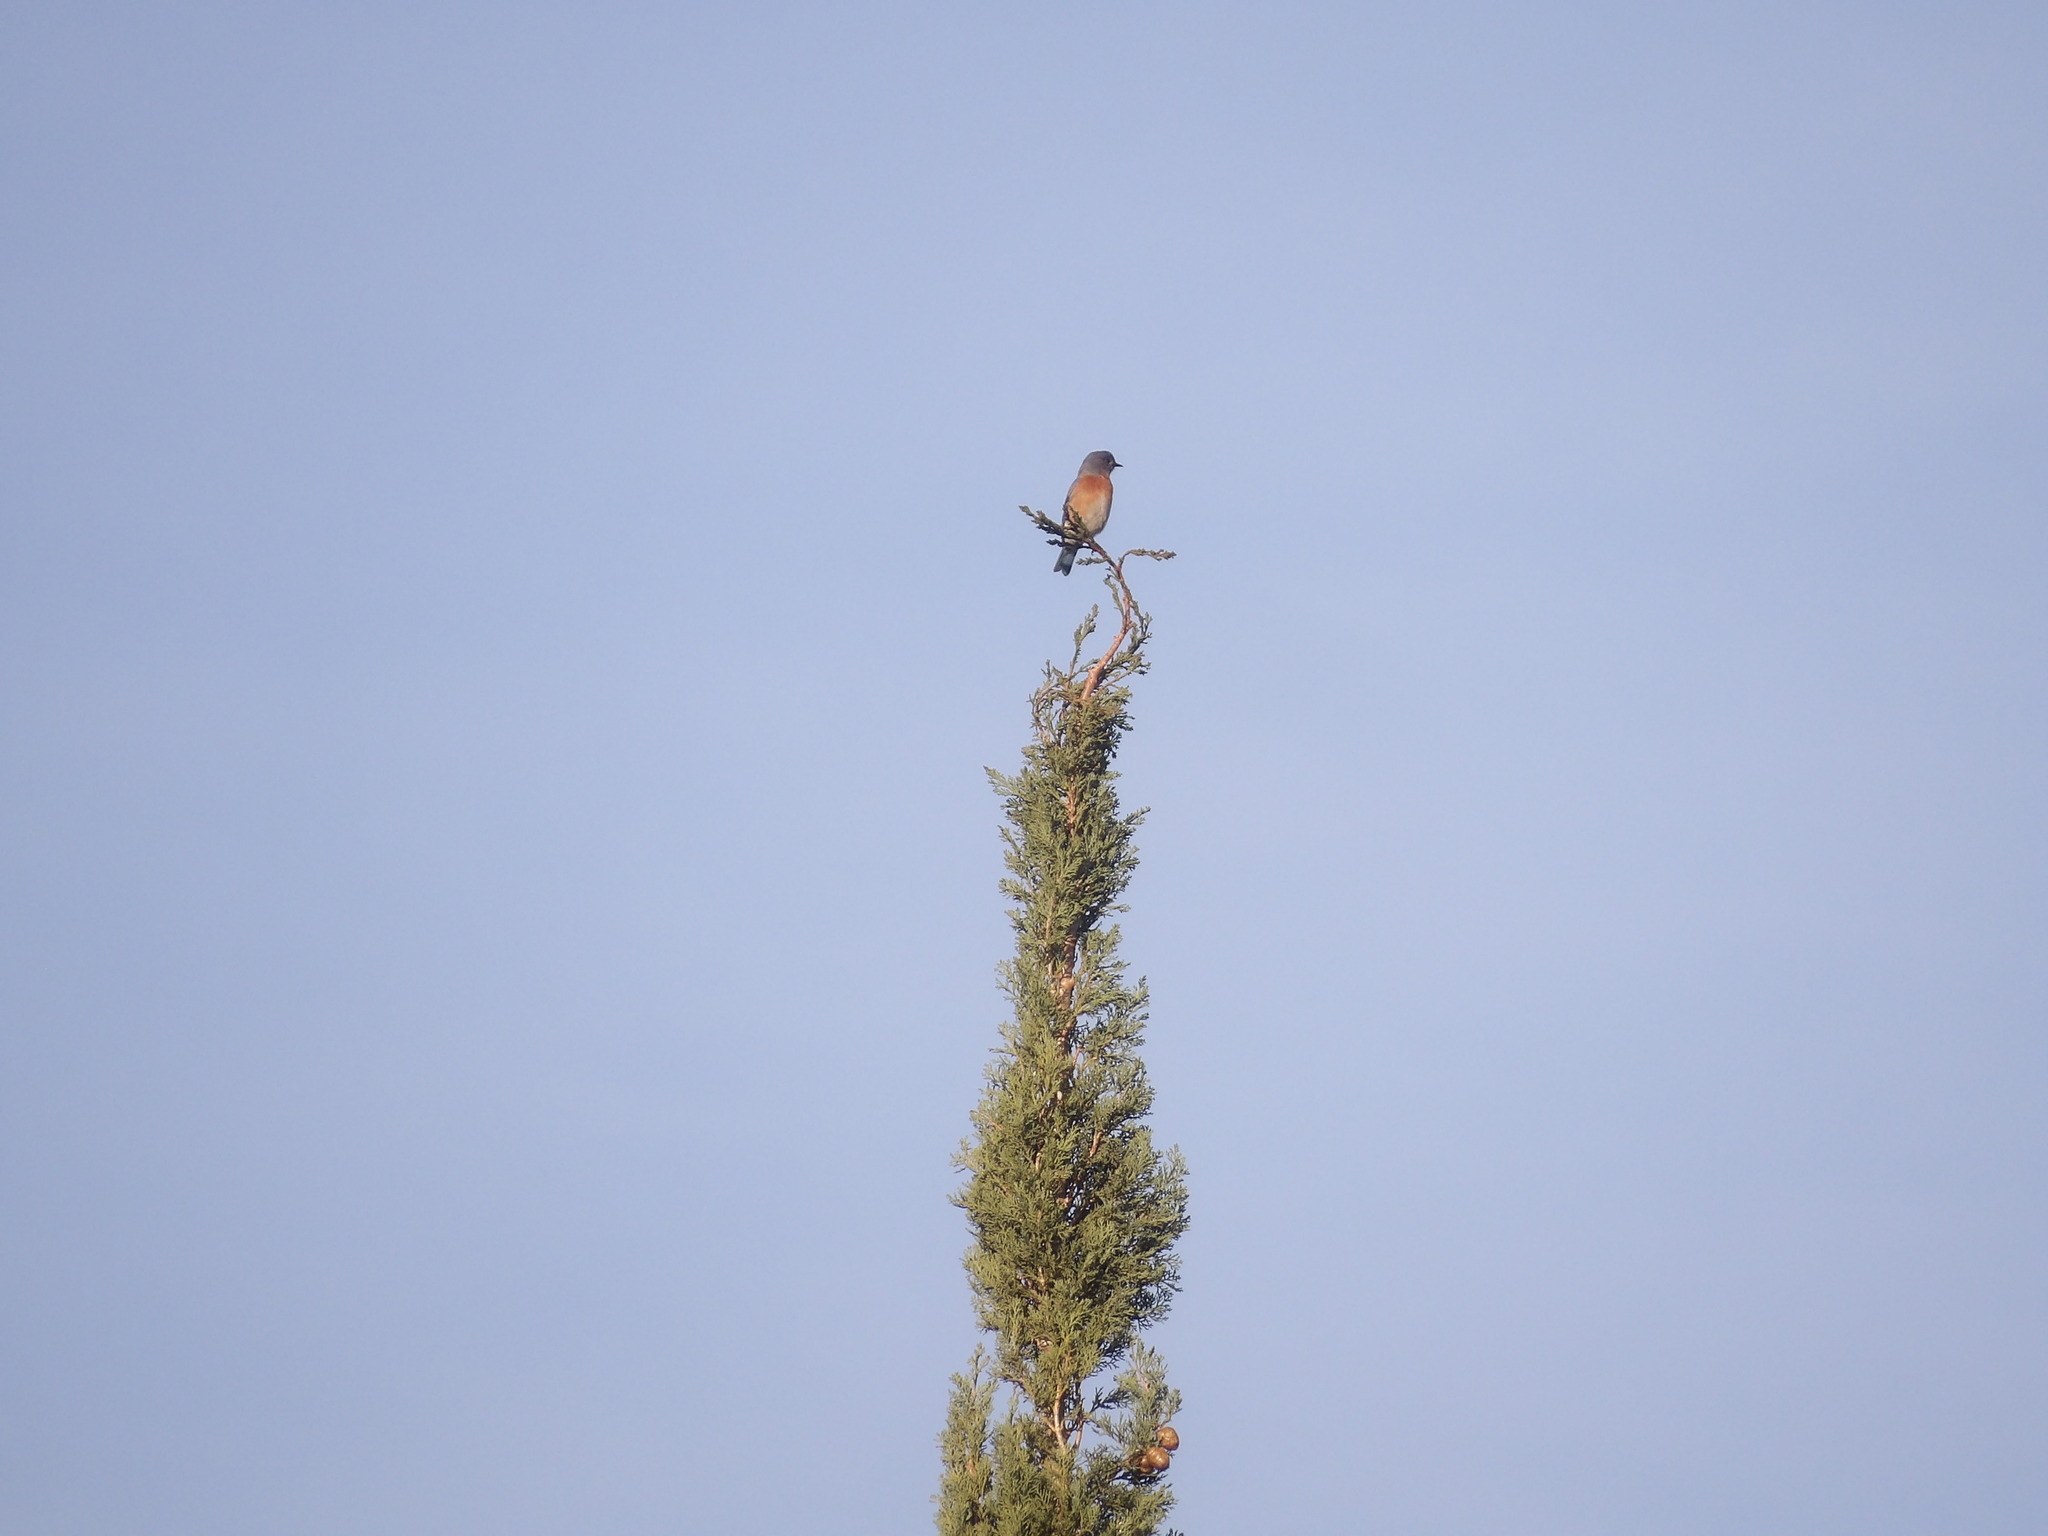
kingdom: Animalia
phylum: Chordata
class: Aves
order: Passeriformes
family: Turdidae
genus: Sialia
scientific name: Sialia mexicana
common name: Western bluebird
